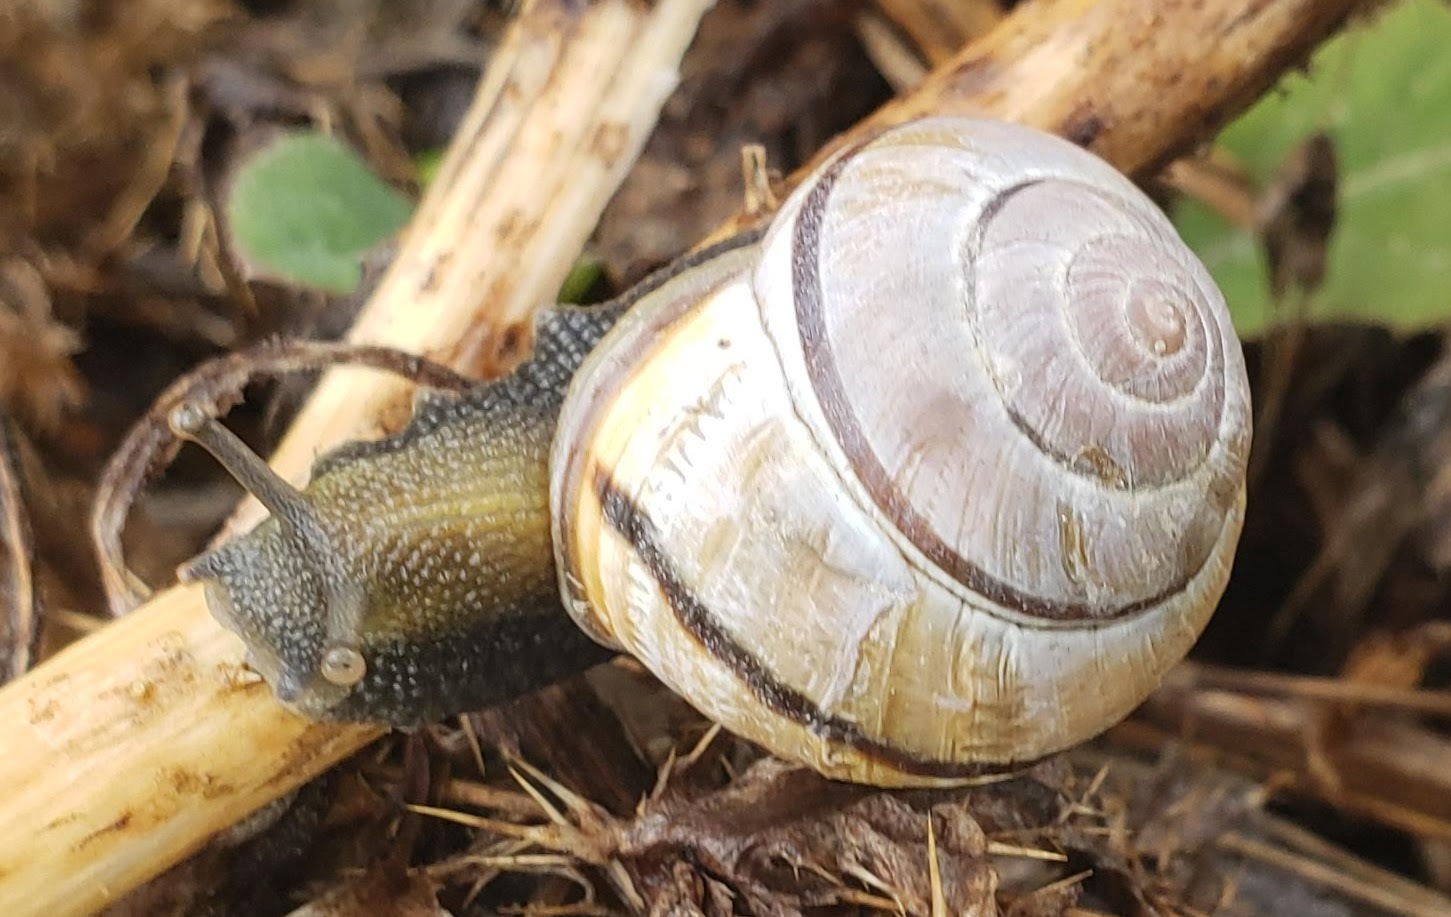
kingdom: Animalia
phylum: Mollusca
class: Gastropoda
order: Stylommatophora
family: Helicidae
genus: Cepaea
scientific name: Cepaea nemoralis
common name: Grovesnail
